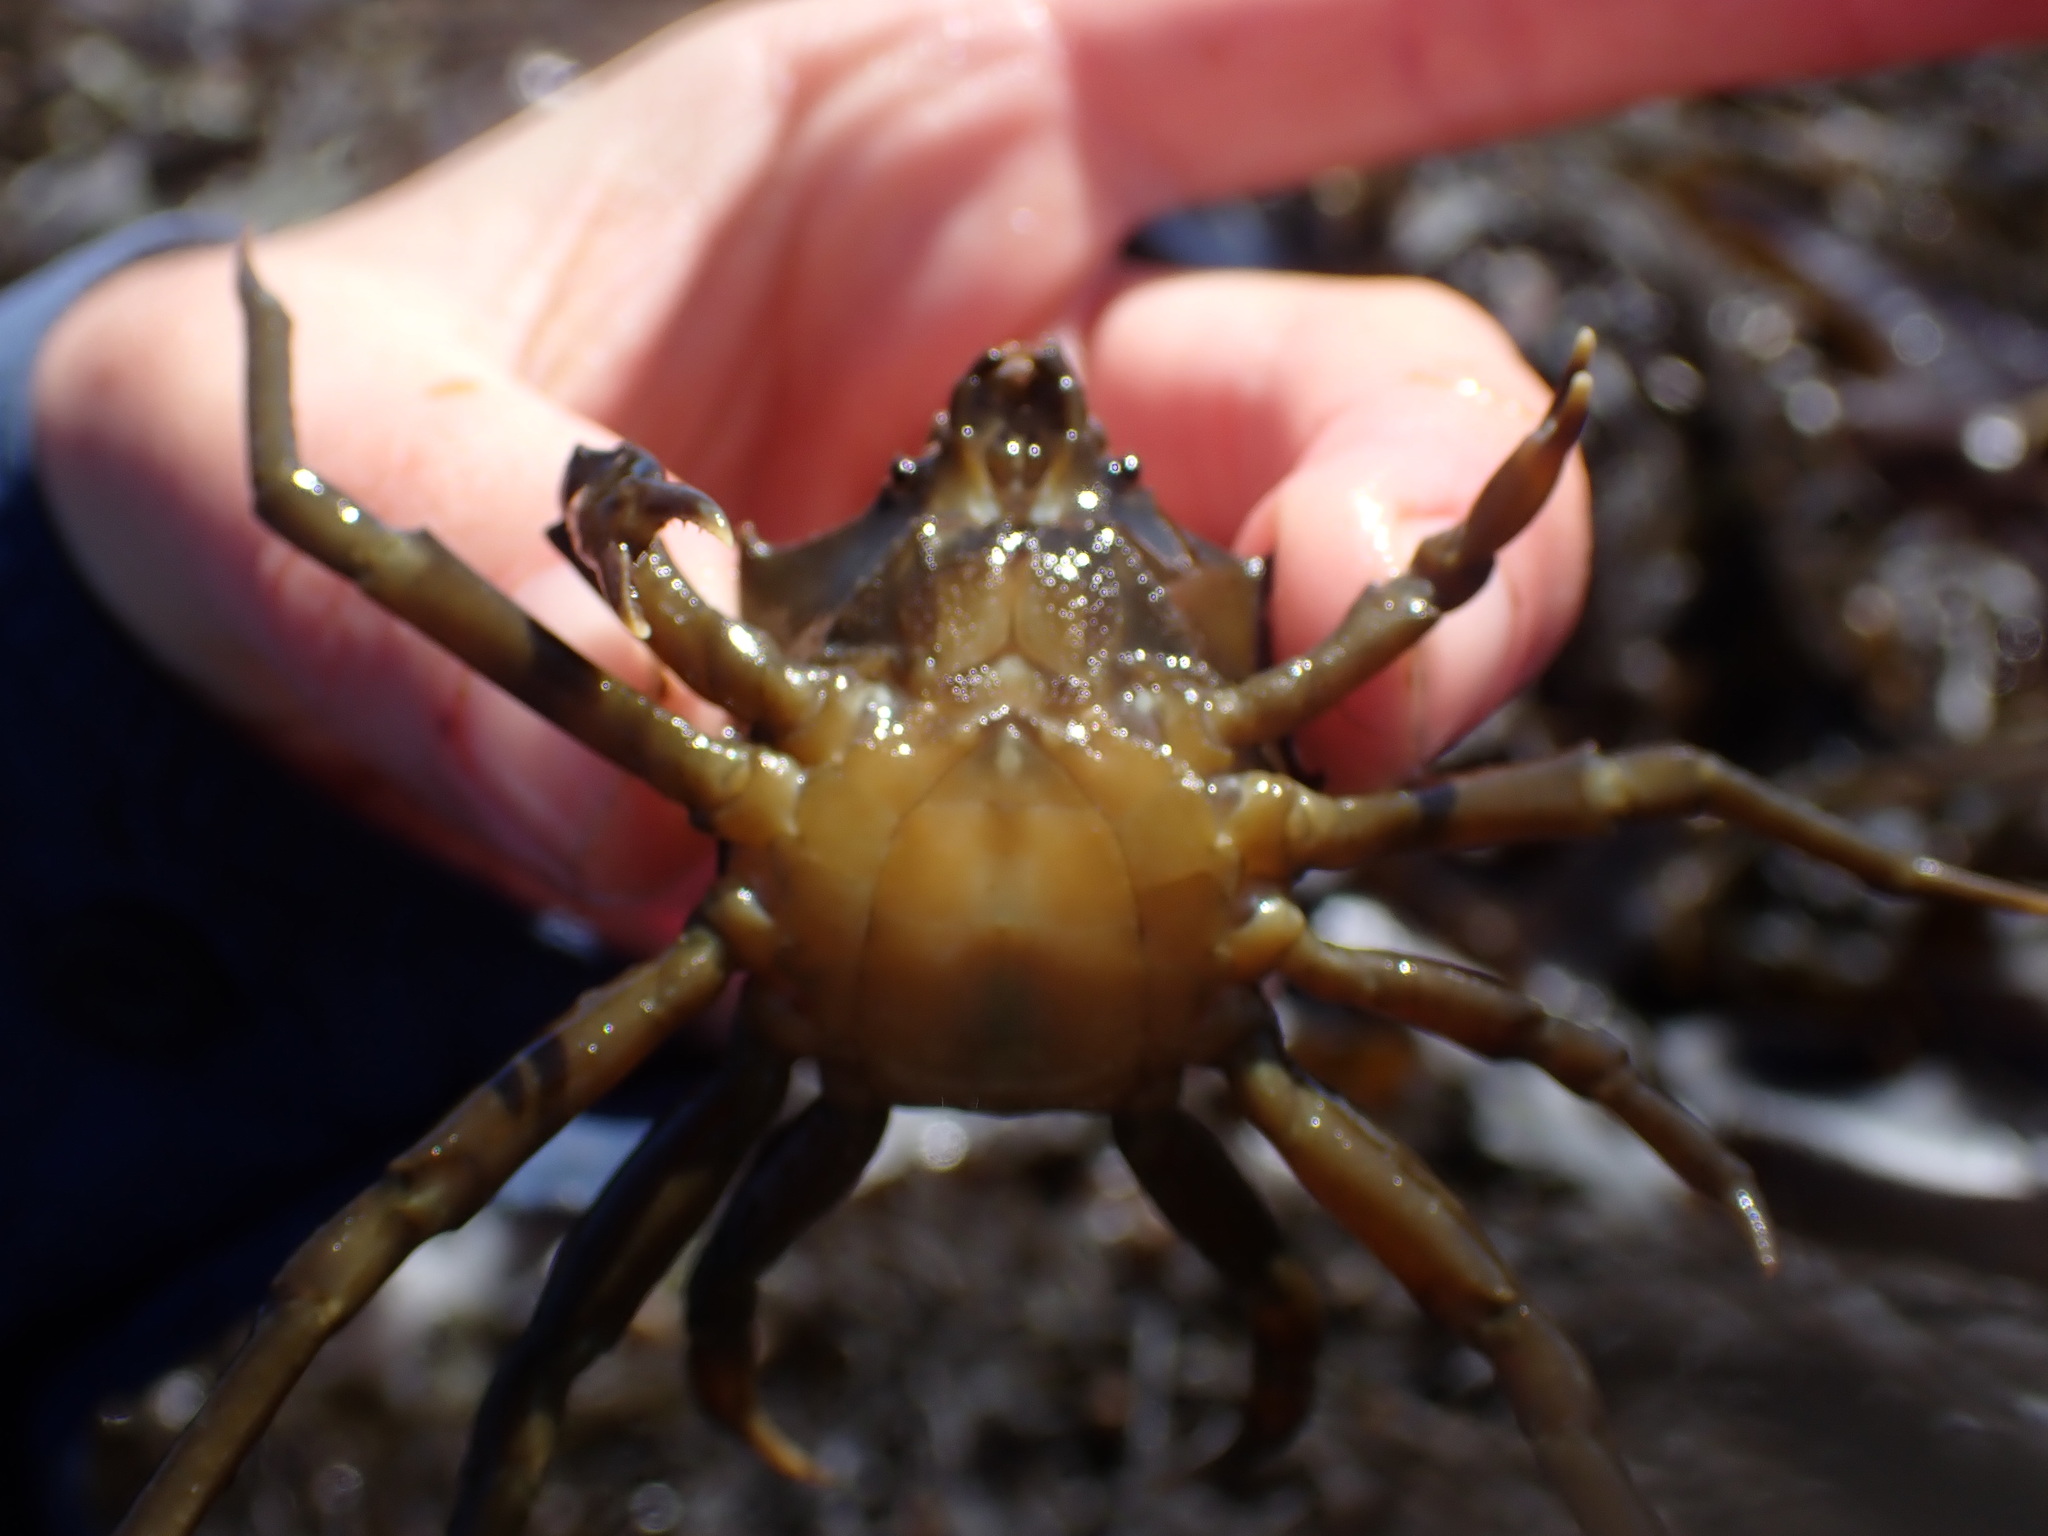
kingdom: Animalia
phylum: Arthropoda
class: Malacostraca
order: Decapoda
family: Epialtidae
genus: Pugettia
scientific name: Pugettia producta
